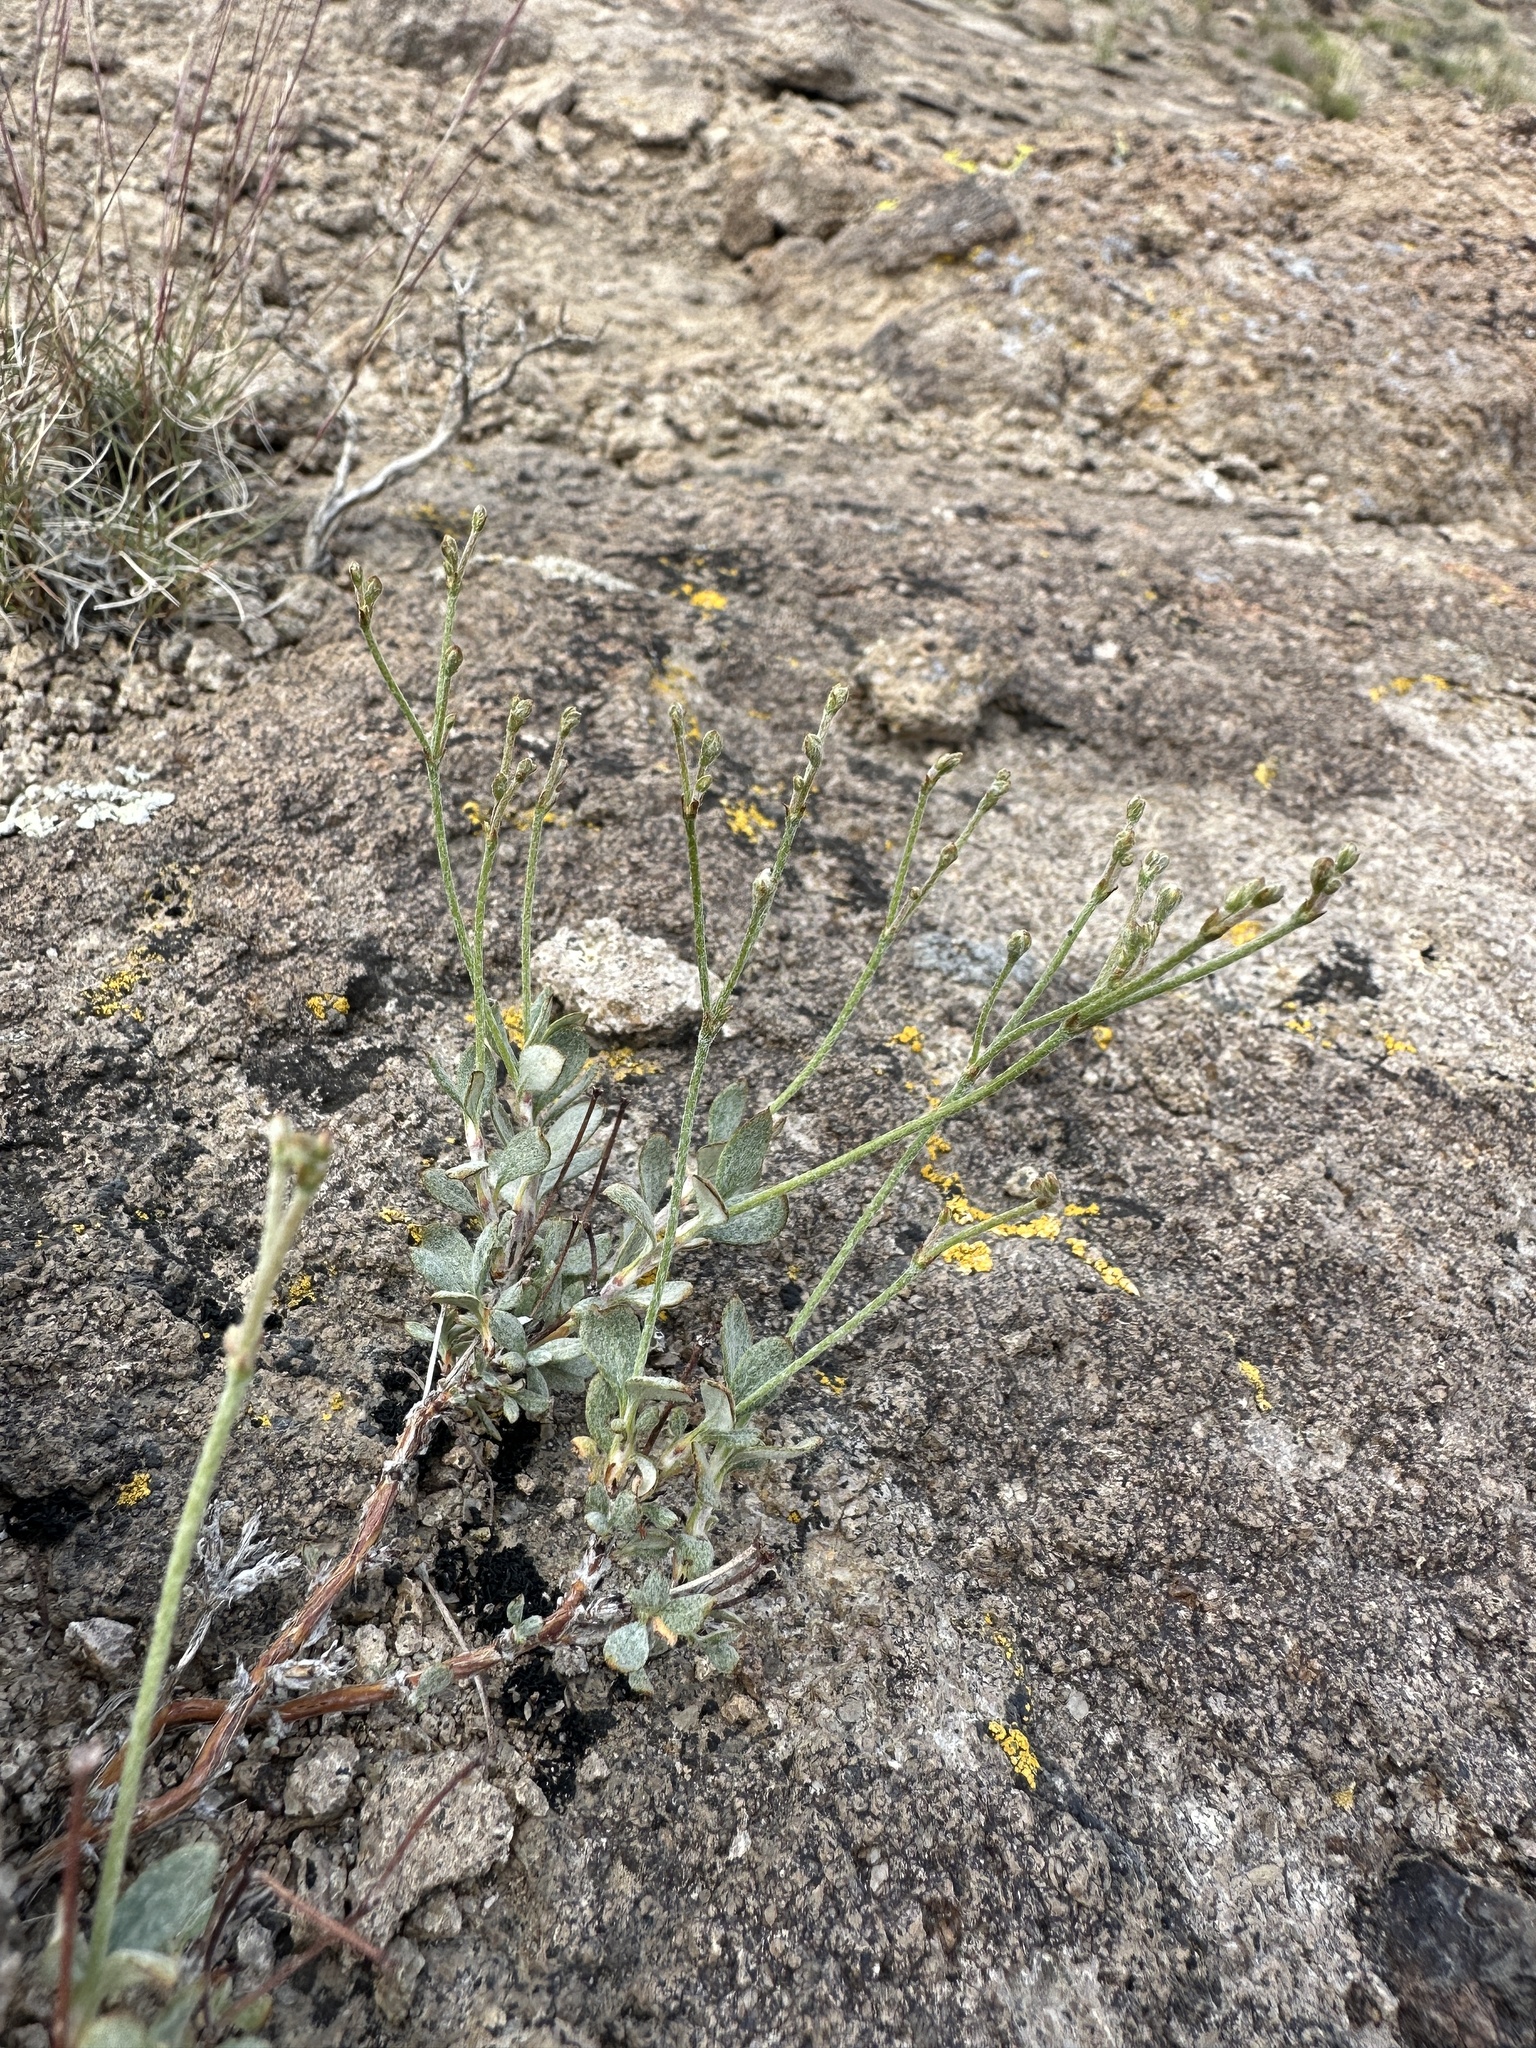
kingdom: Plantae
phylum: Tracheophyta
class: Magnoliopsida
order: Caryophyllales
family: Polygonaceae
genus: Eriogonum
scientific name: Eriogonum microtheca
